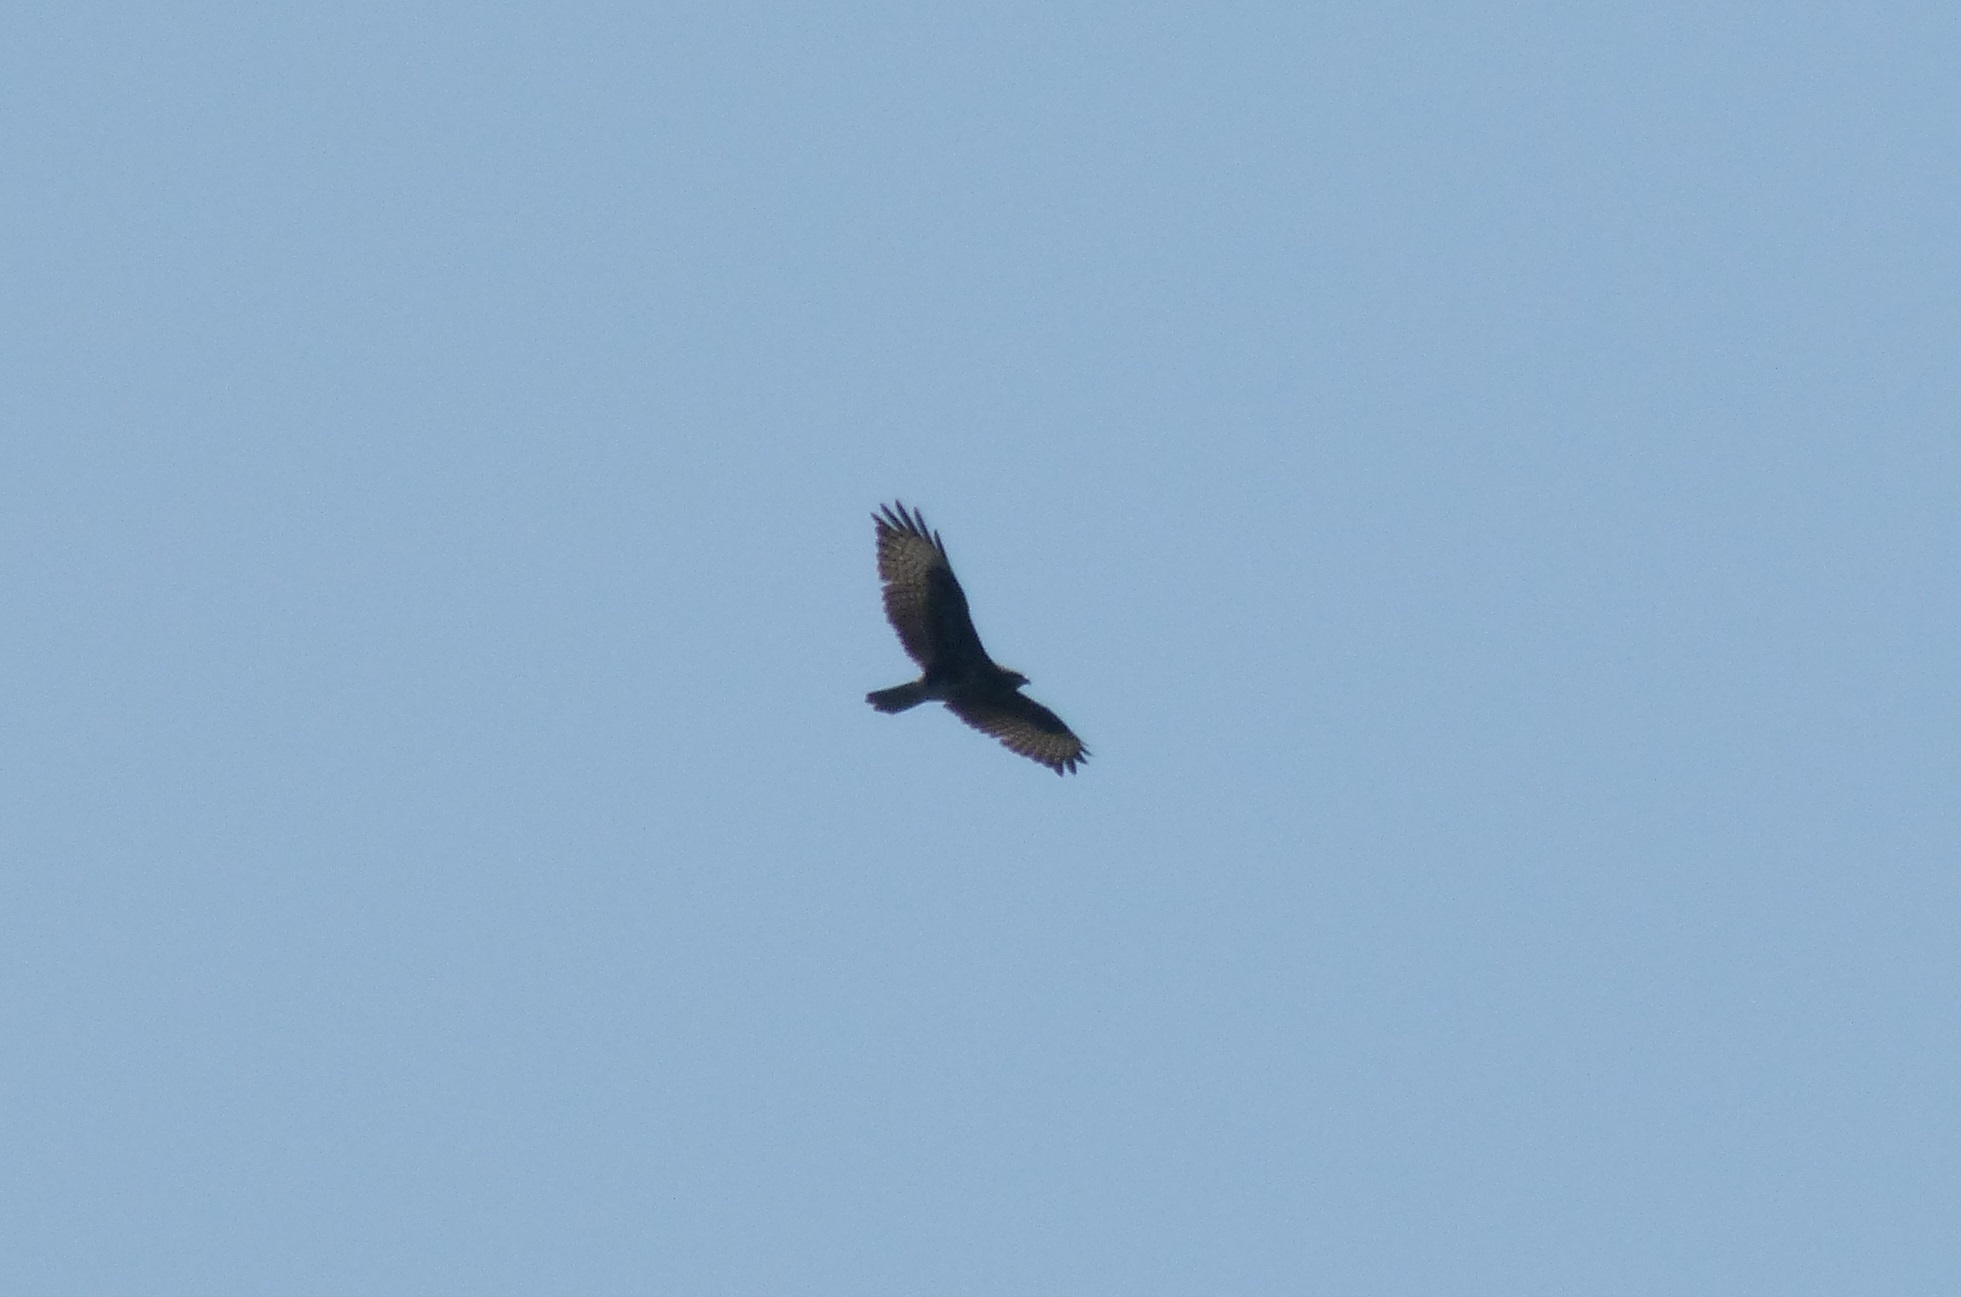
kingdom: Animalia
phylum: Chordata
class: Aves
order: Accipitriformes
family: Accipitridae
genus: Buteo
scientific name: Buteo buteo
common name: Common buzzard
